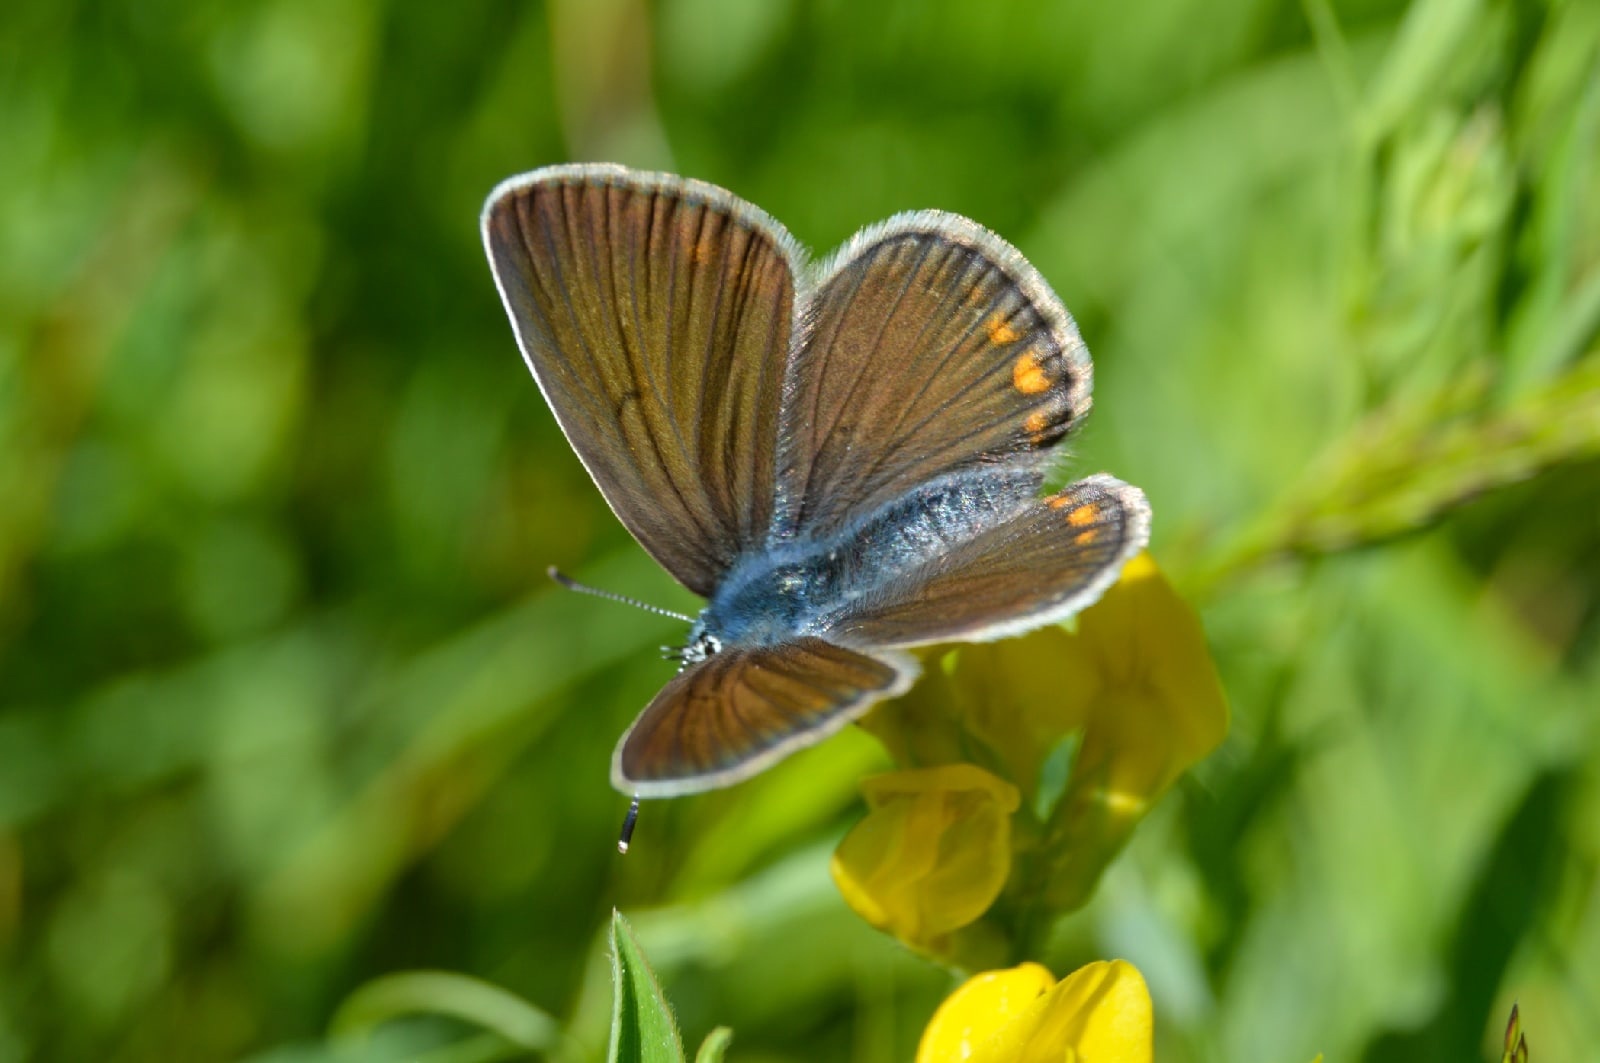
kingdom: Animalia
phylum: Arthropoda
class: Insecta
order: Lepidoptera
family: Lycaenidae
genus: Plebejus
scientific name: Plebejus amanda
